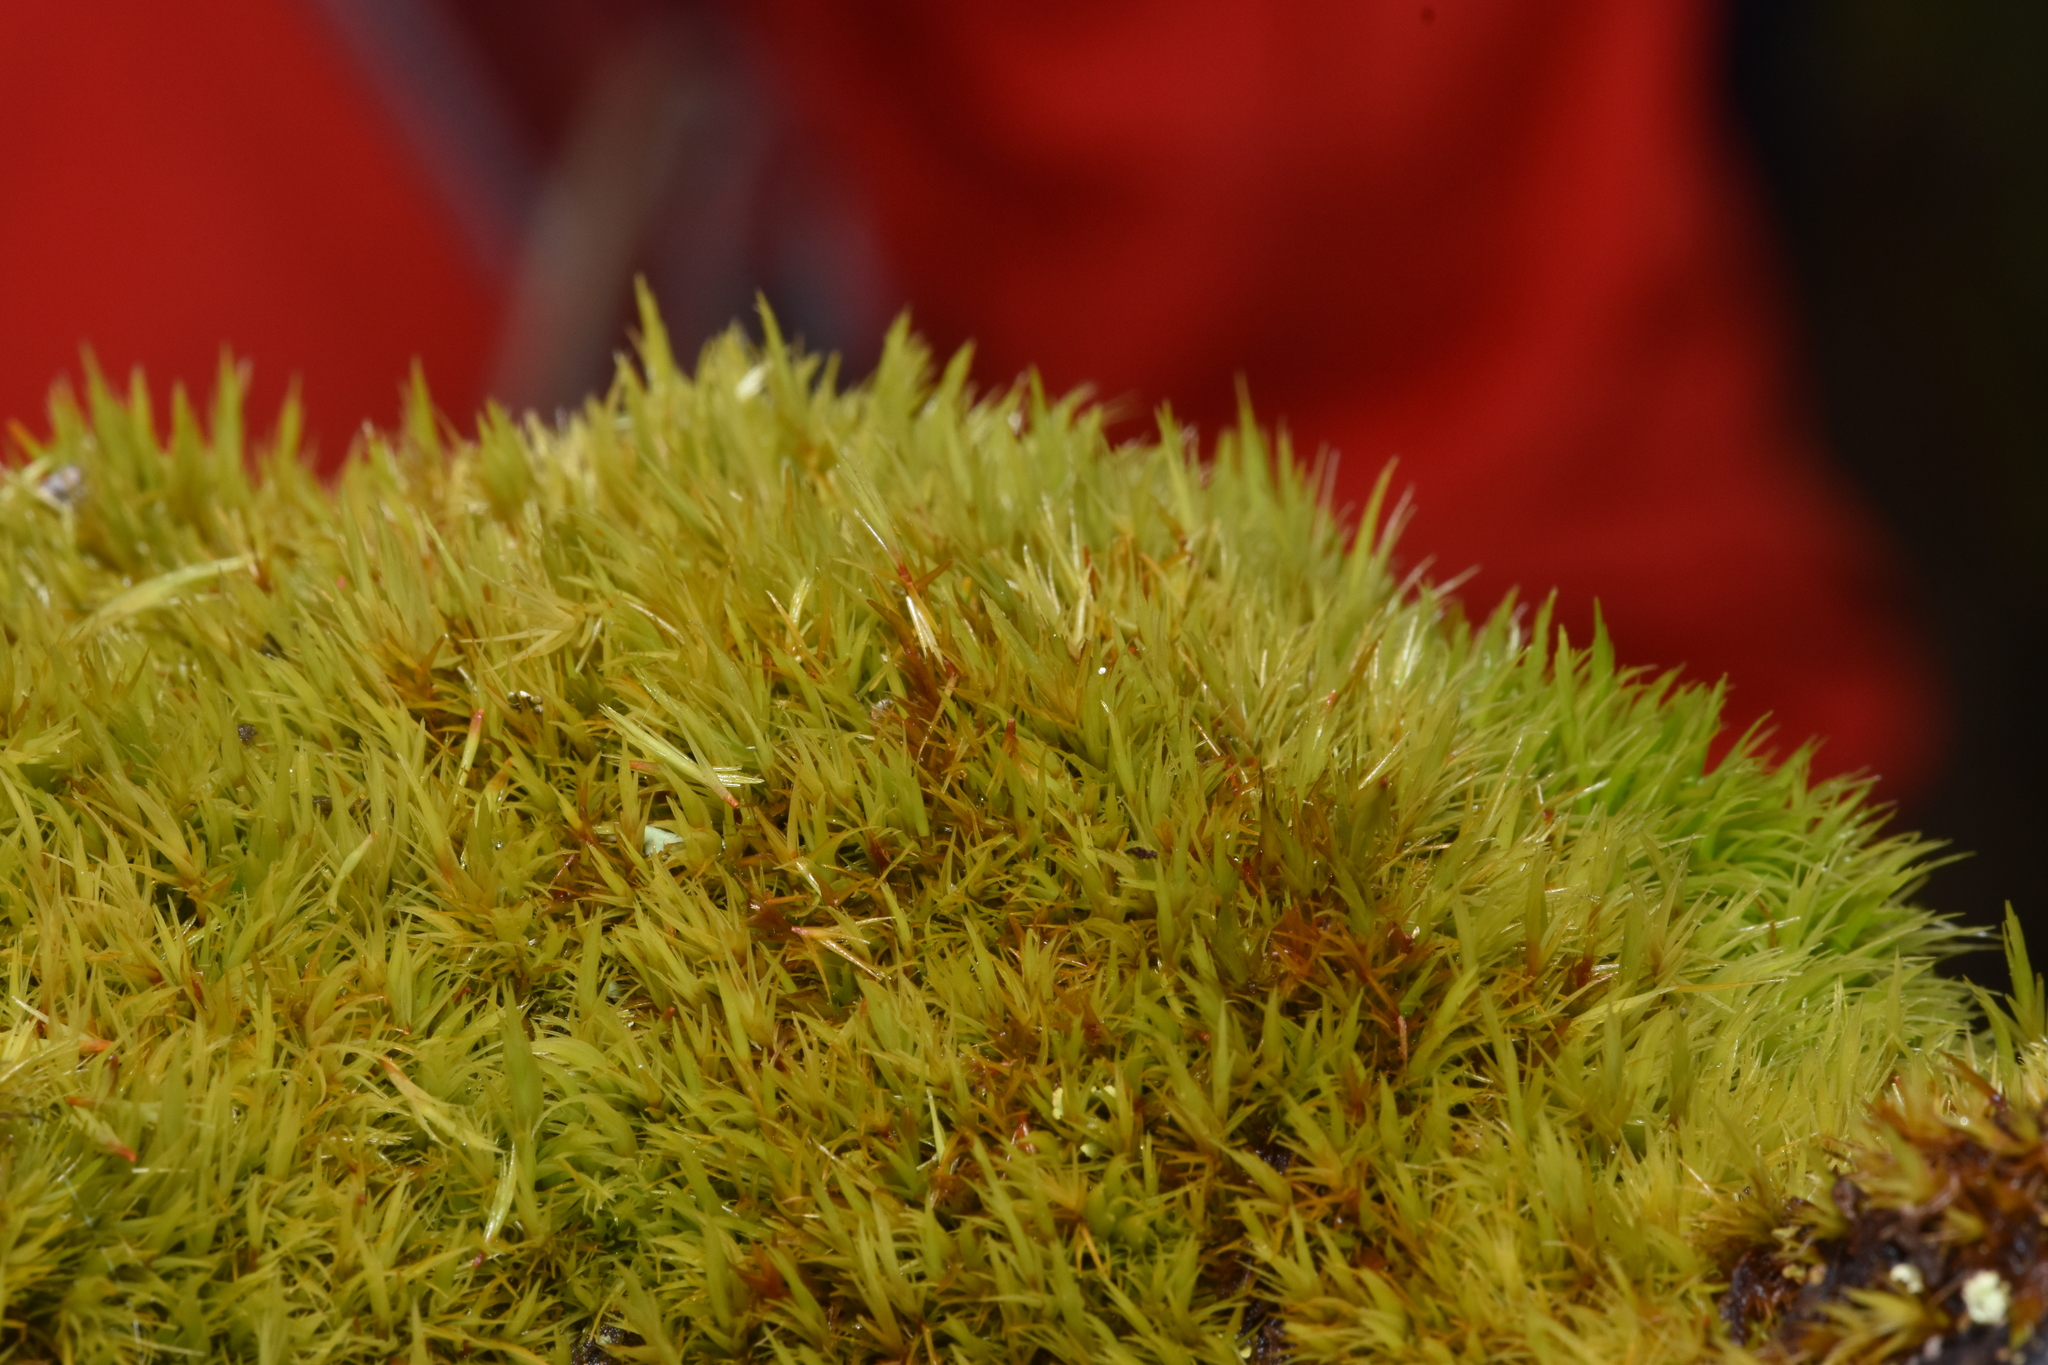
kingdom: Plantae
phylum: Bryophyta
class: Bryopsida
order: Dicranales
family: Dicranaceae
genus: Dicranum
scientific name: Dicranum howellii
